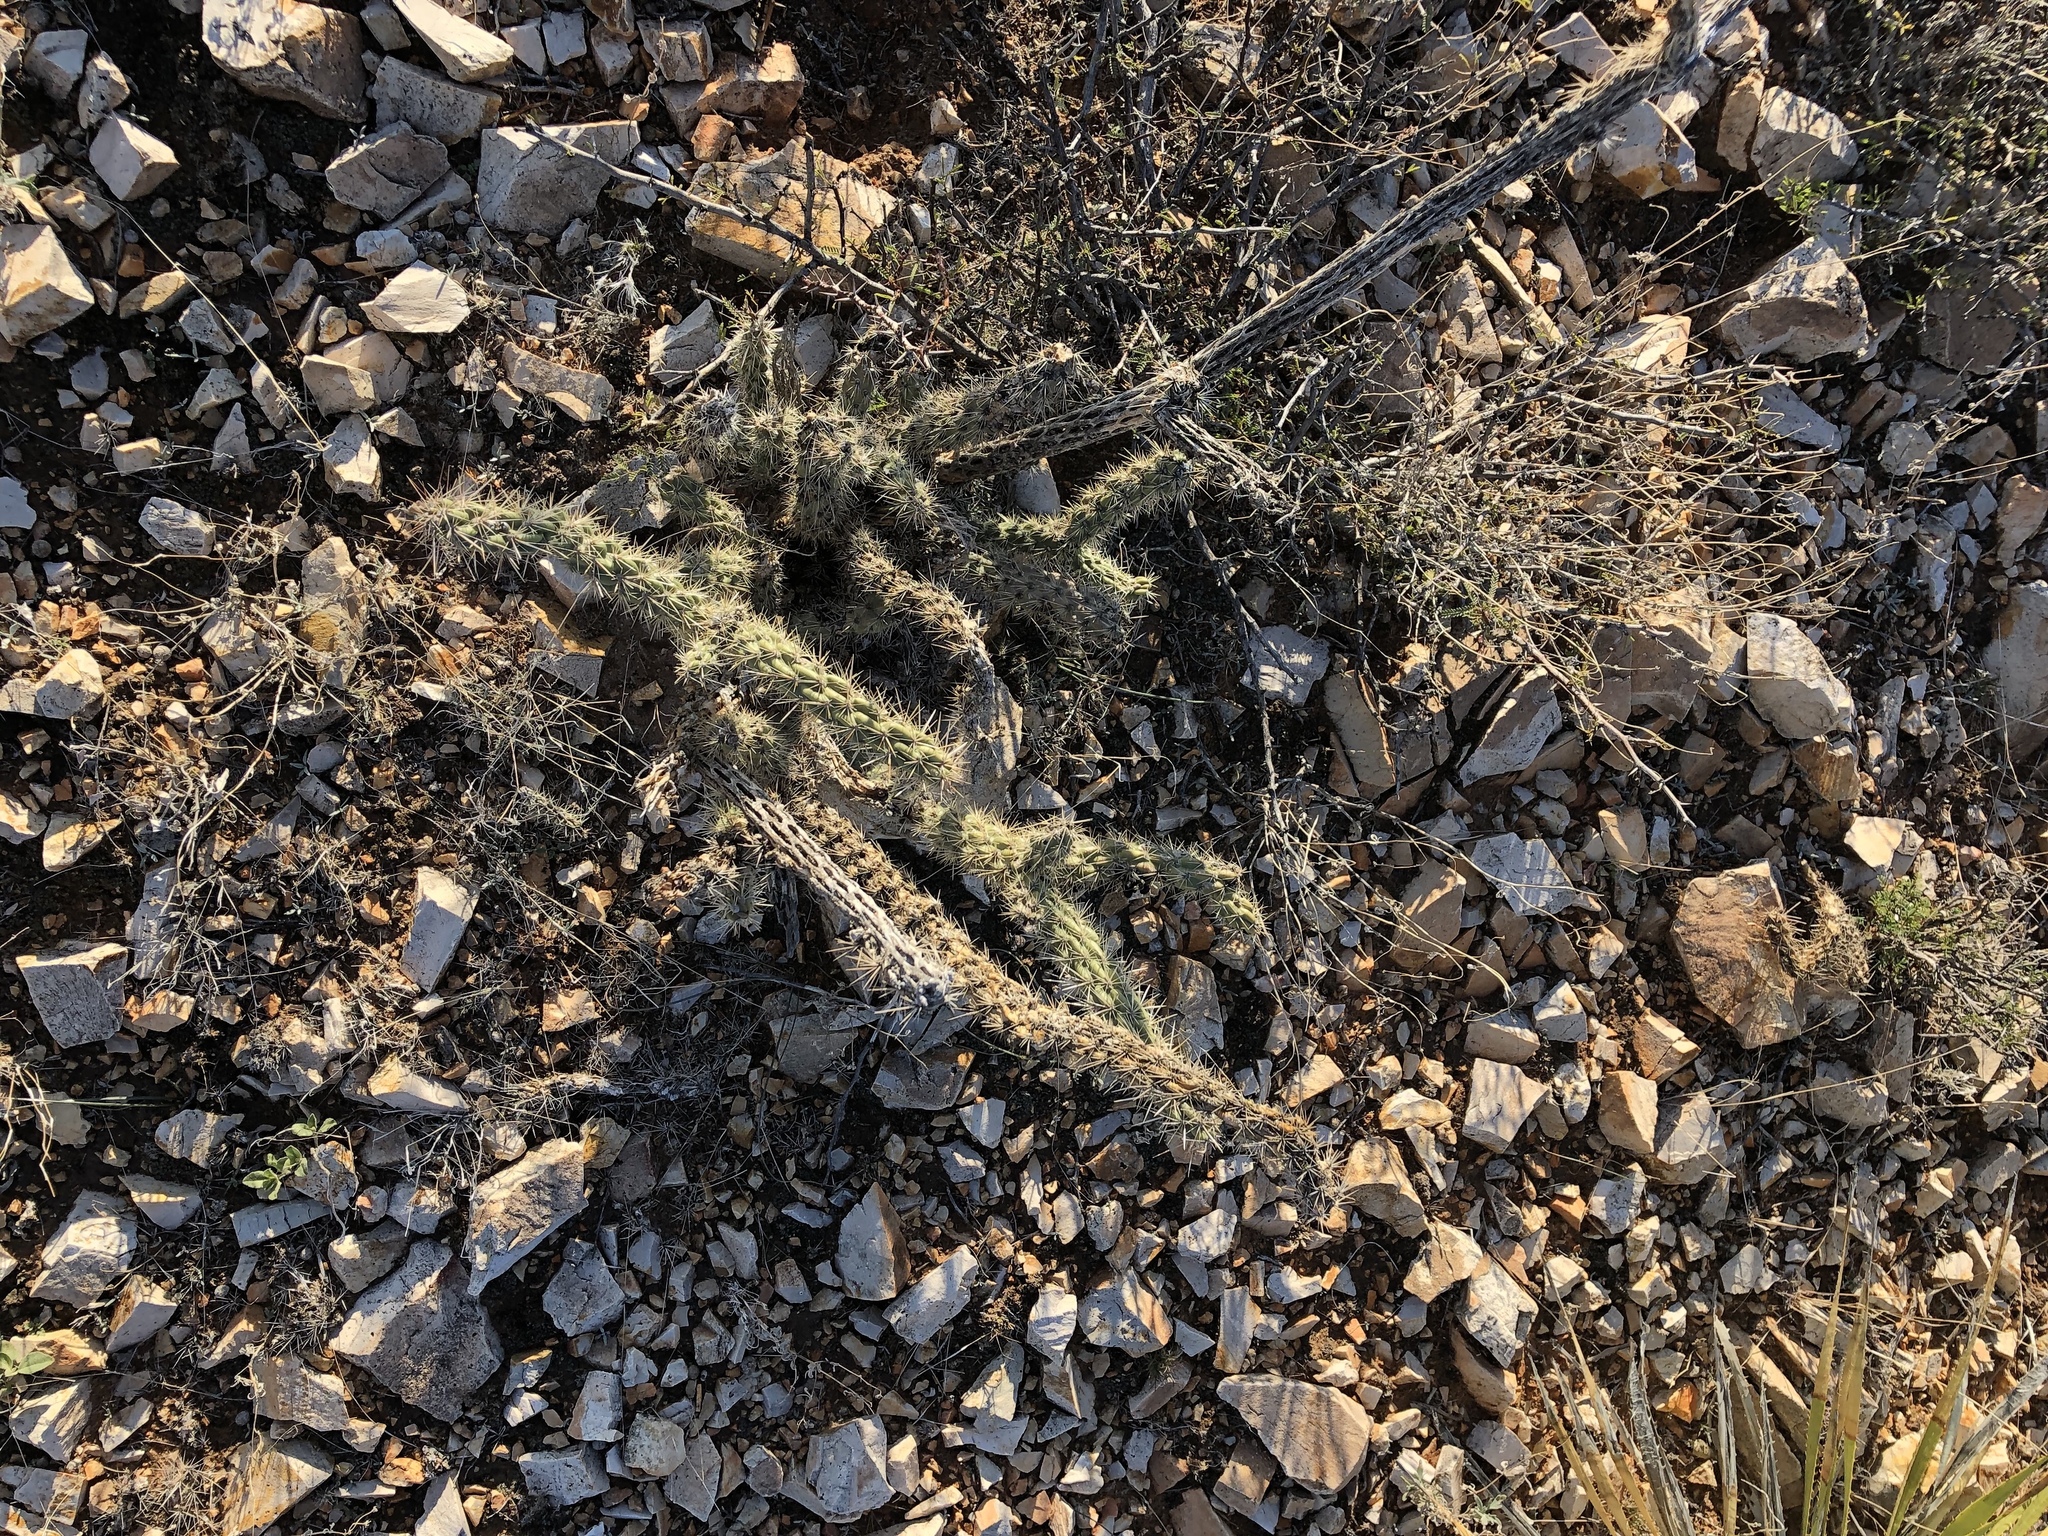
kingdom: Plantae
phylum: Tracheophyta
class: Magnoliopsida
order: Caryophyllales
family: Cactaceae
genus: Cylindropuntia
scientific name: Cylindropuntia imbricata
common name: Candelabrum cactus
